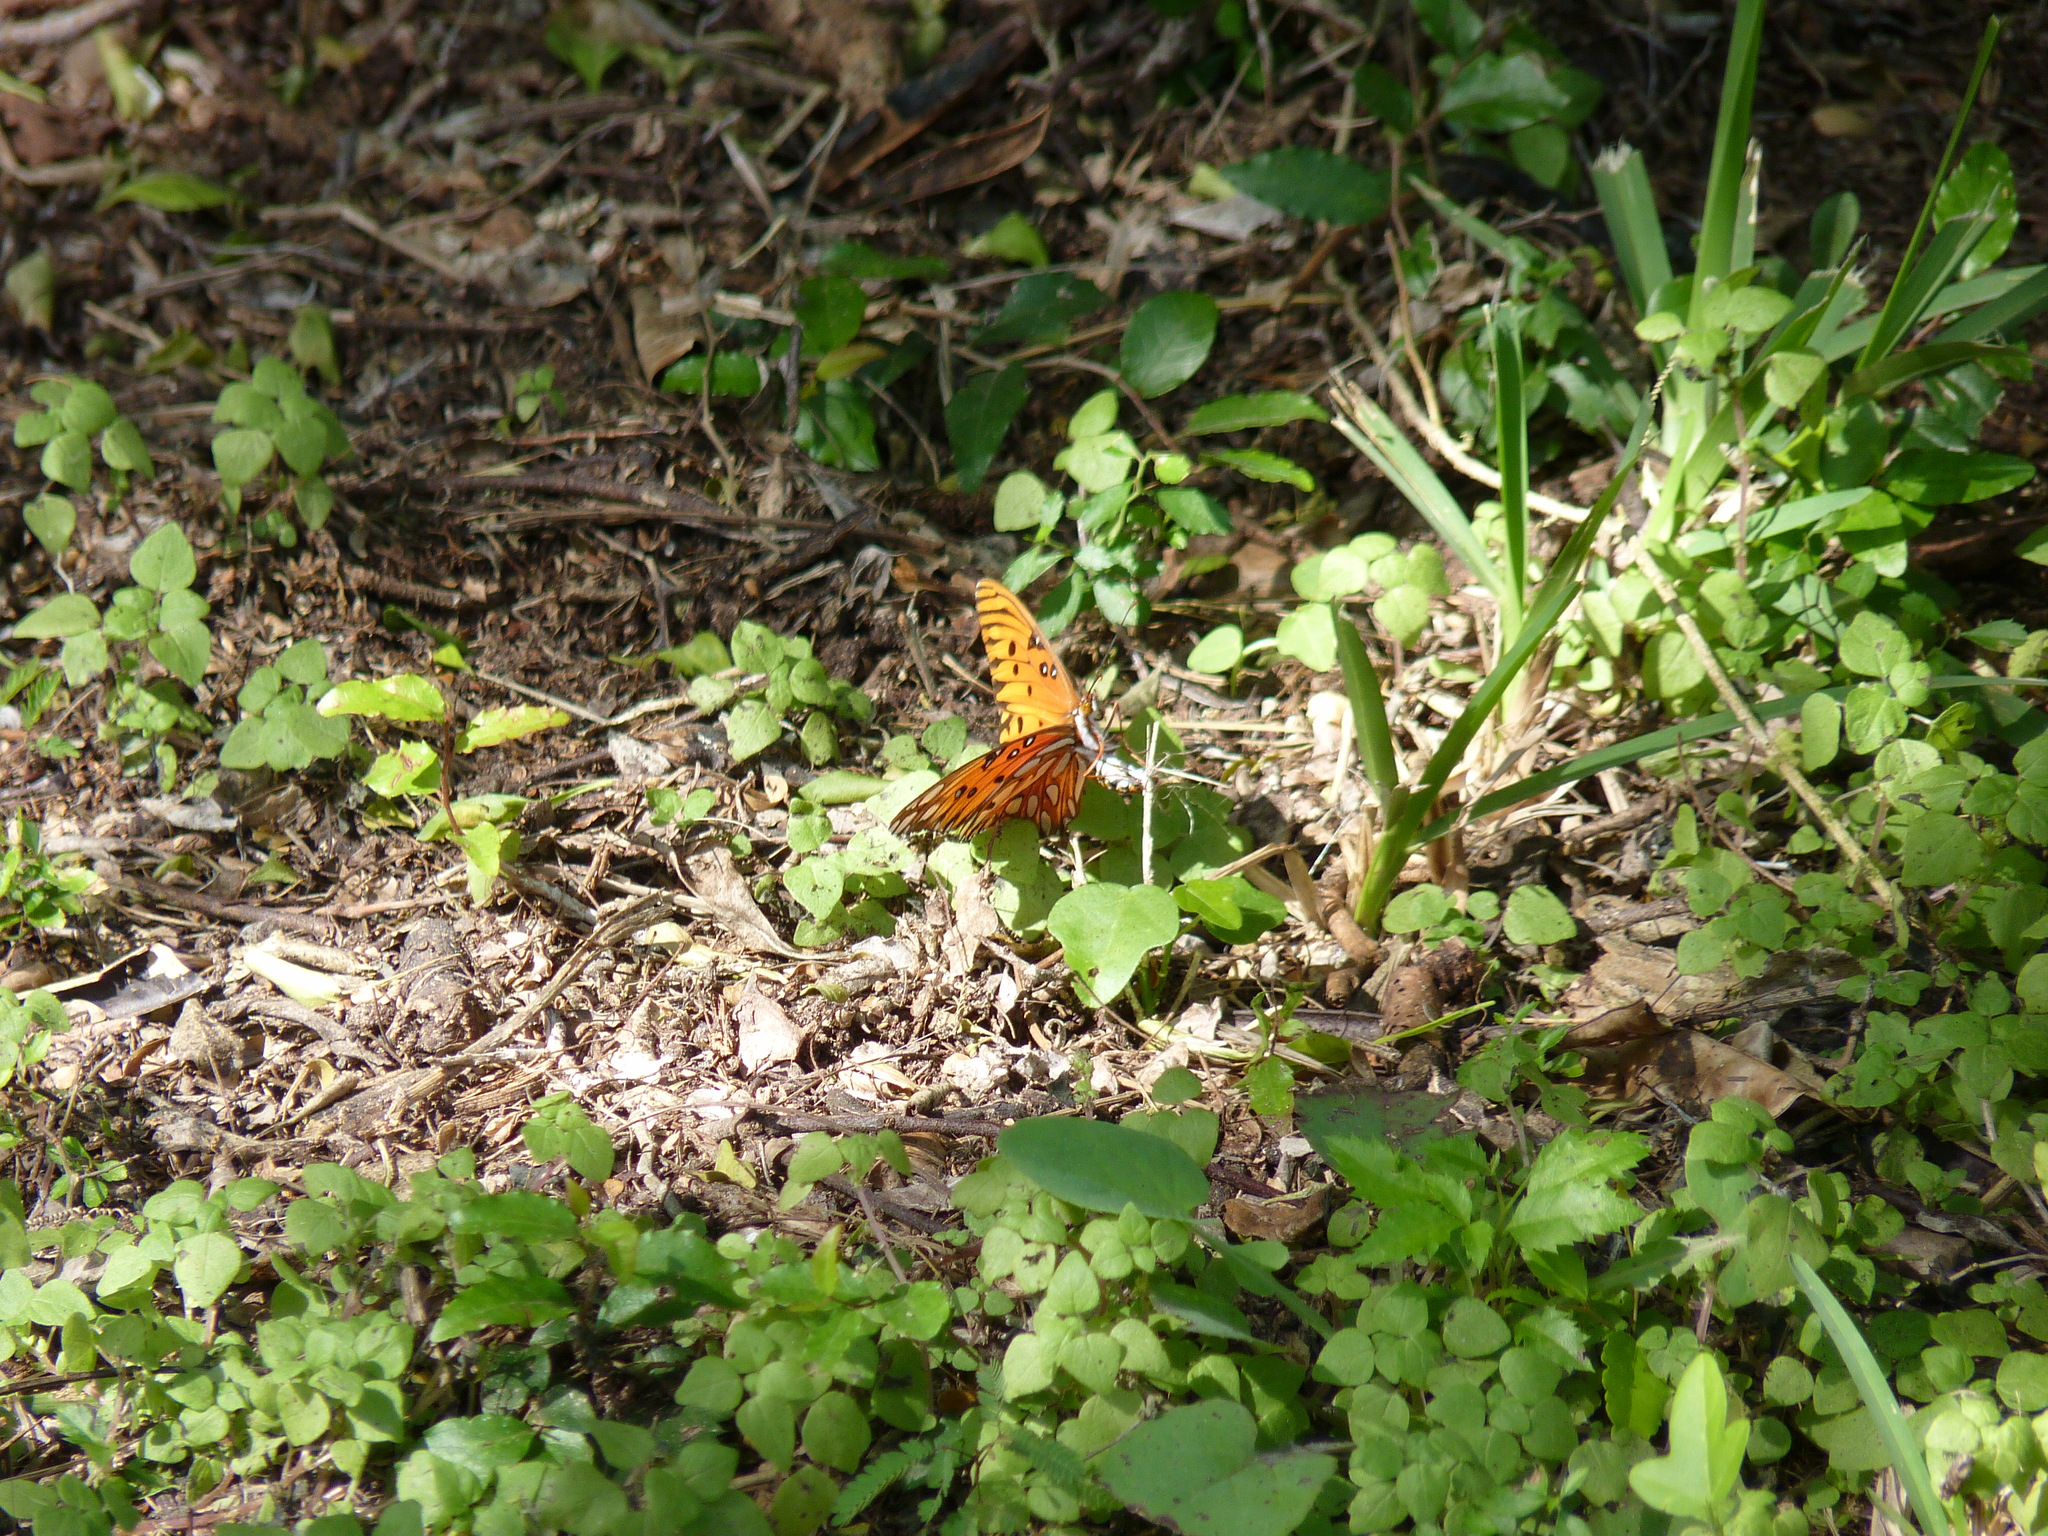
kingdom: Animalia
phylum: Arthropoda
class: Insecta
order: Lepidoptera
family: Nymphalidae
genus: Dione
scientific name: Dione vanillae
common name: Gulf fritillary
